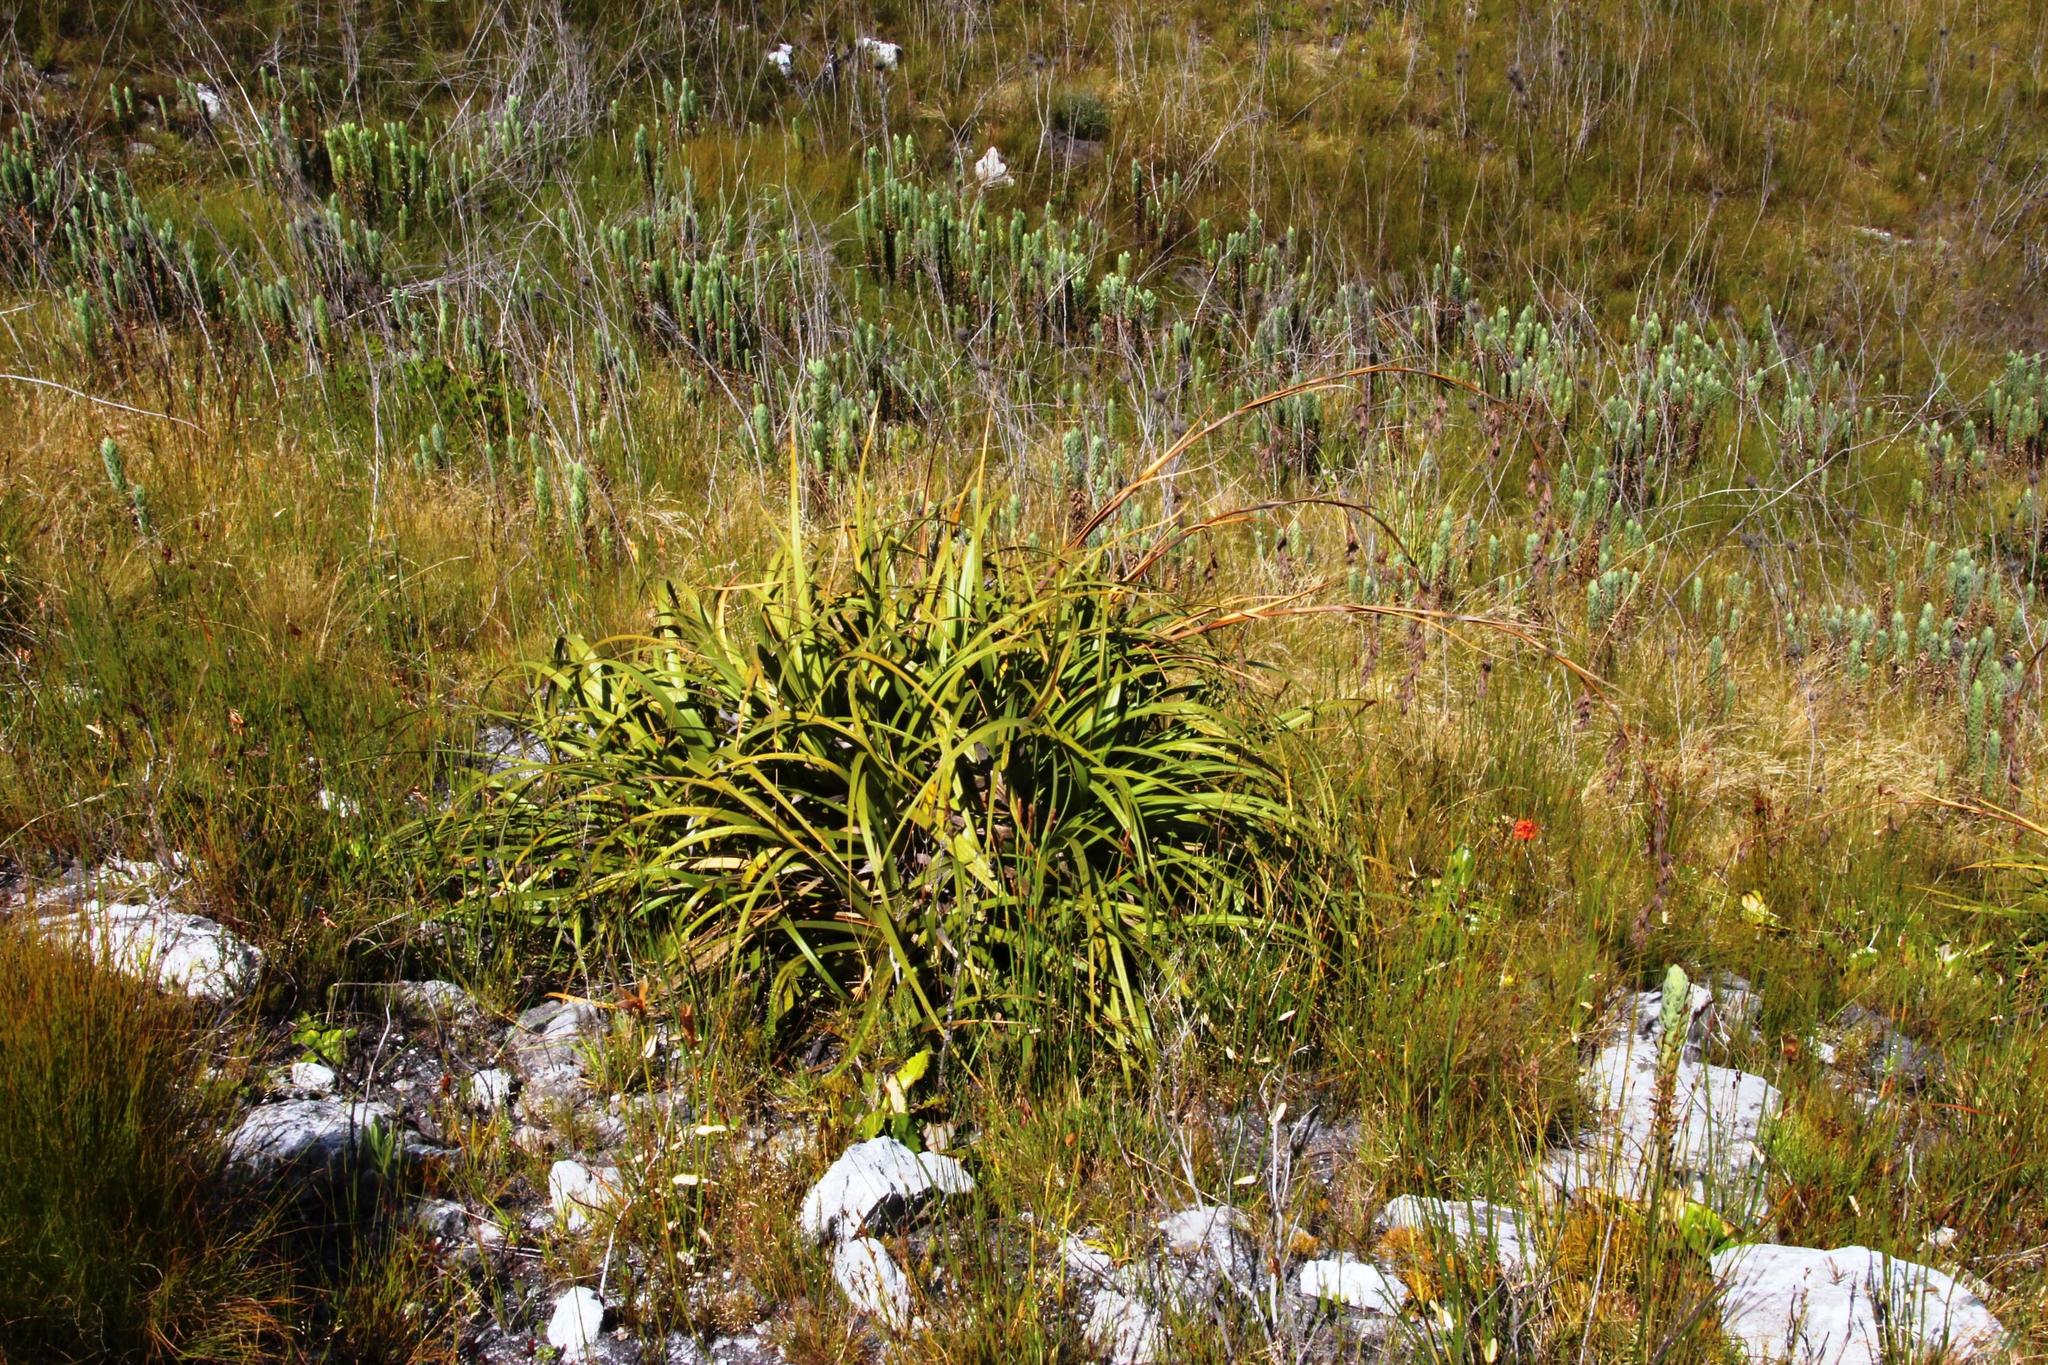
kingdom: Plantae
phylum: Tracheophyta
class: Liliopsida
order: Poales
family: Cyperaceae
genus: Tetraria
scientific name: Tetraria thermalis
